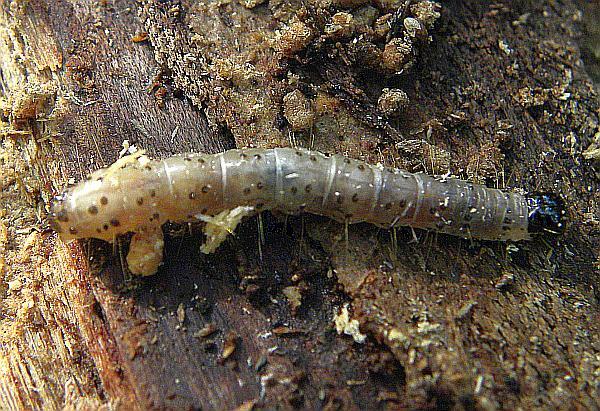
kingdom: Animalia
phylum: Arthropoda
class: Insecta
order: Lepidoptera
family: Erebidae
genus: Scolecocampa
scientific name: Scolecocampa liburna
